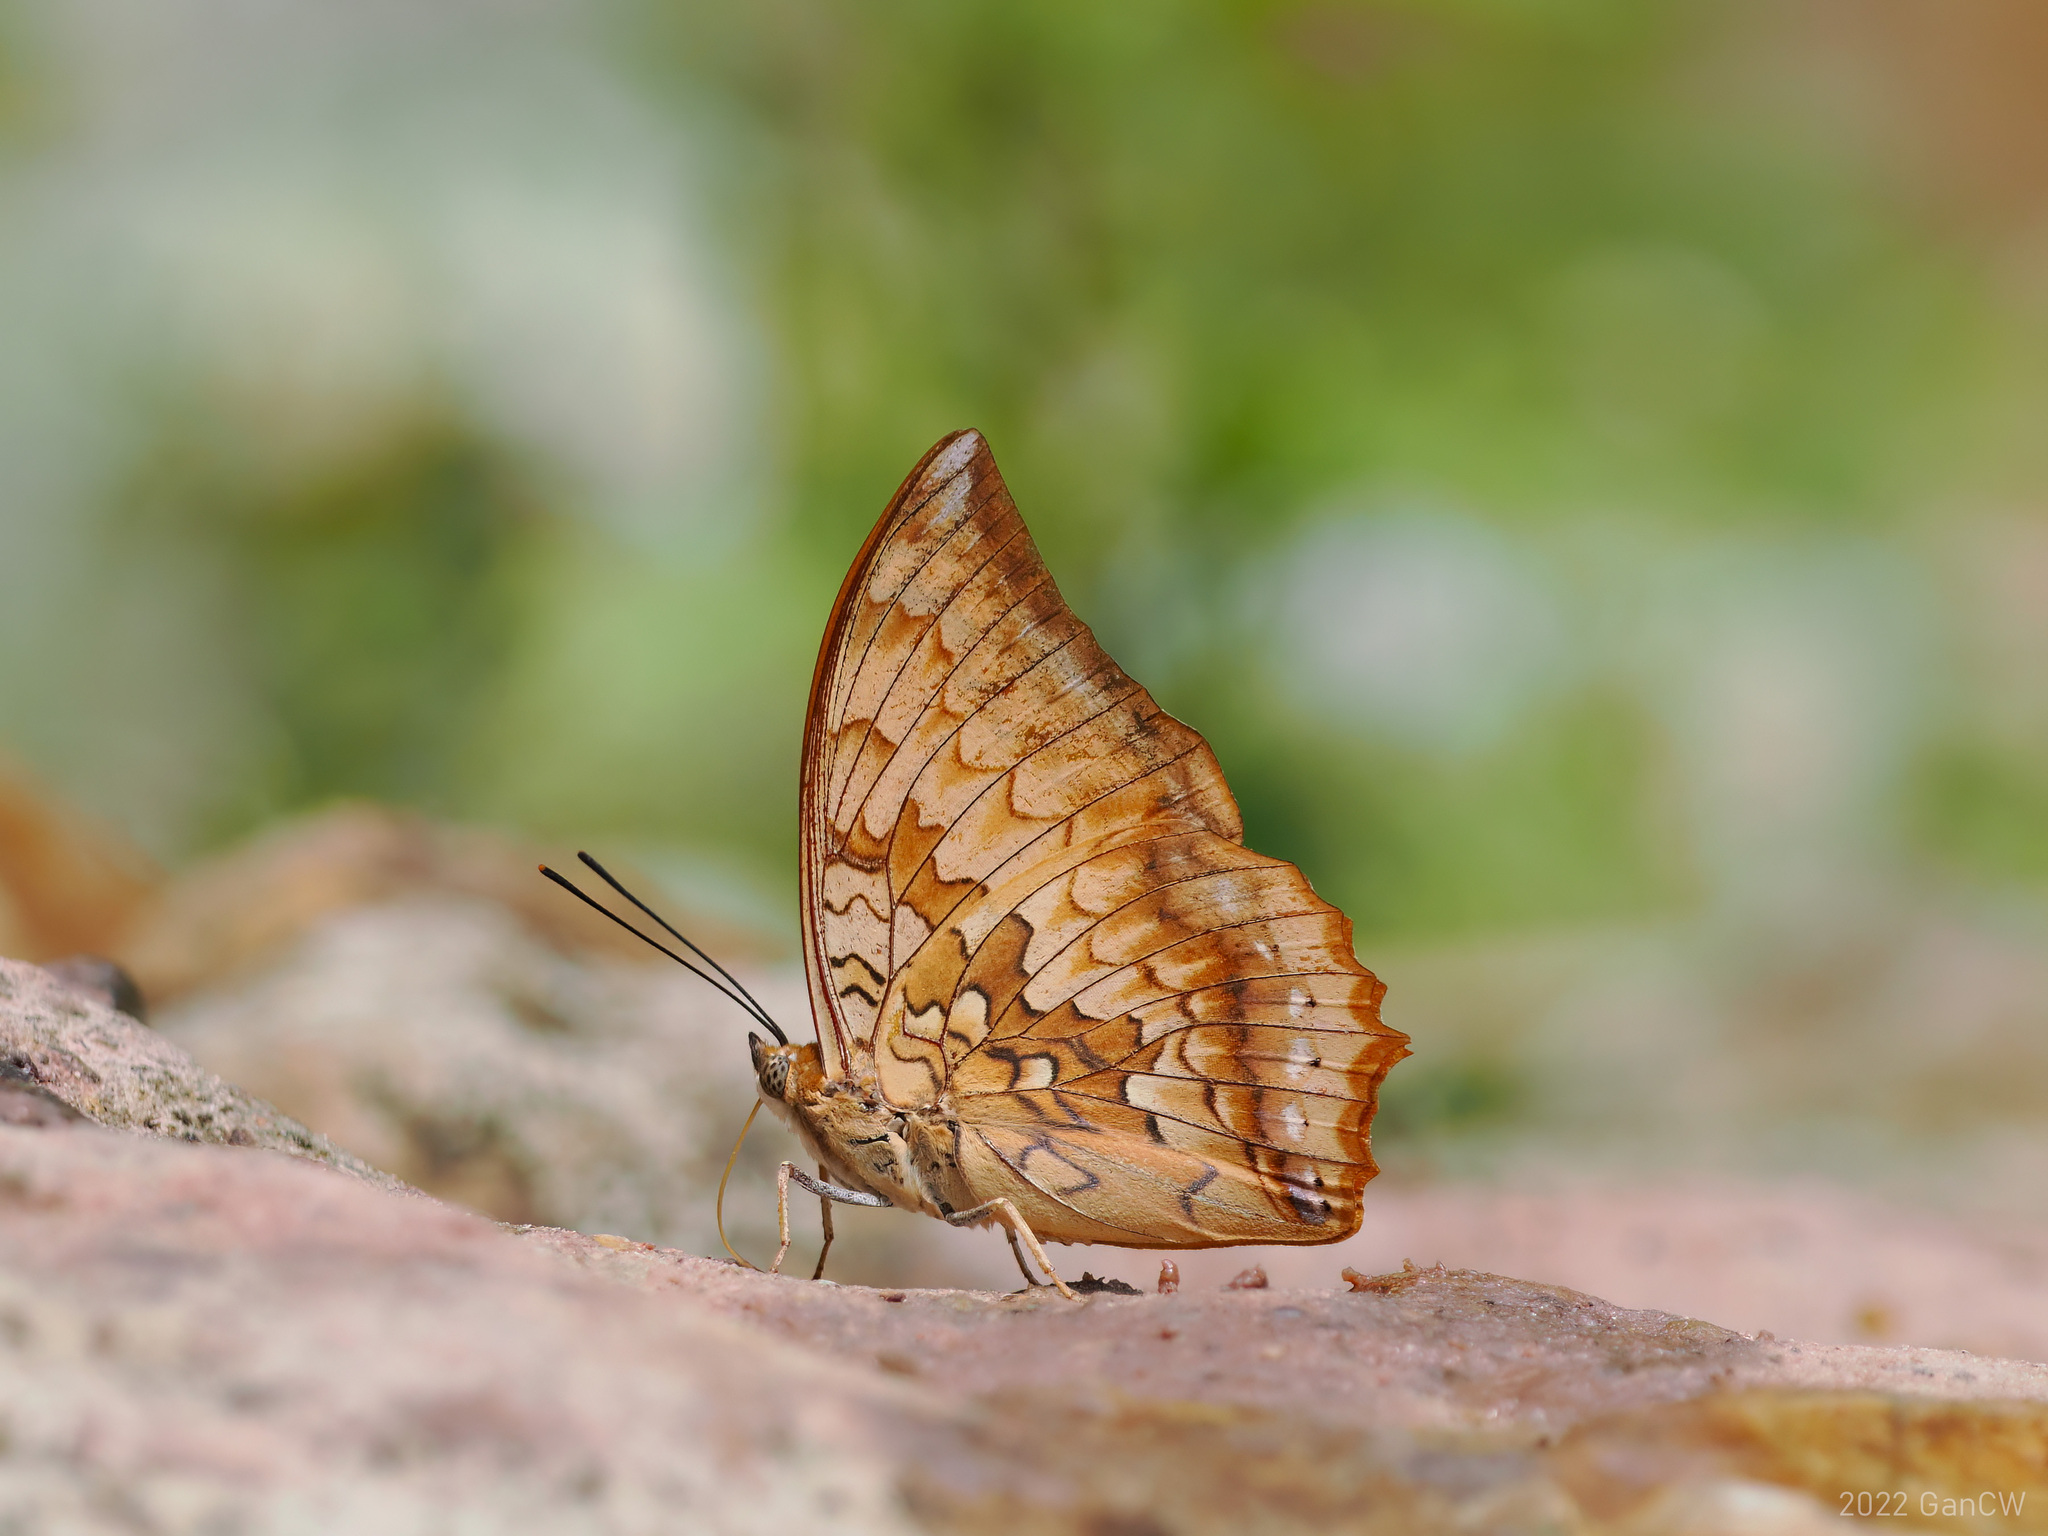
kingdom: Animalia
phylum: Arthropoda
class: Insecta
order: Lepidoptera
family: Nymphalidae
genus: Charaxes
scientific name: Charaxes kahruba
